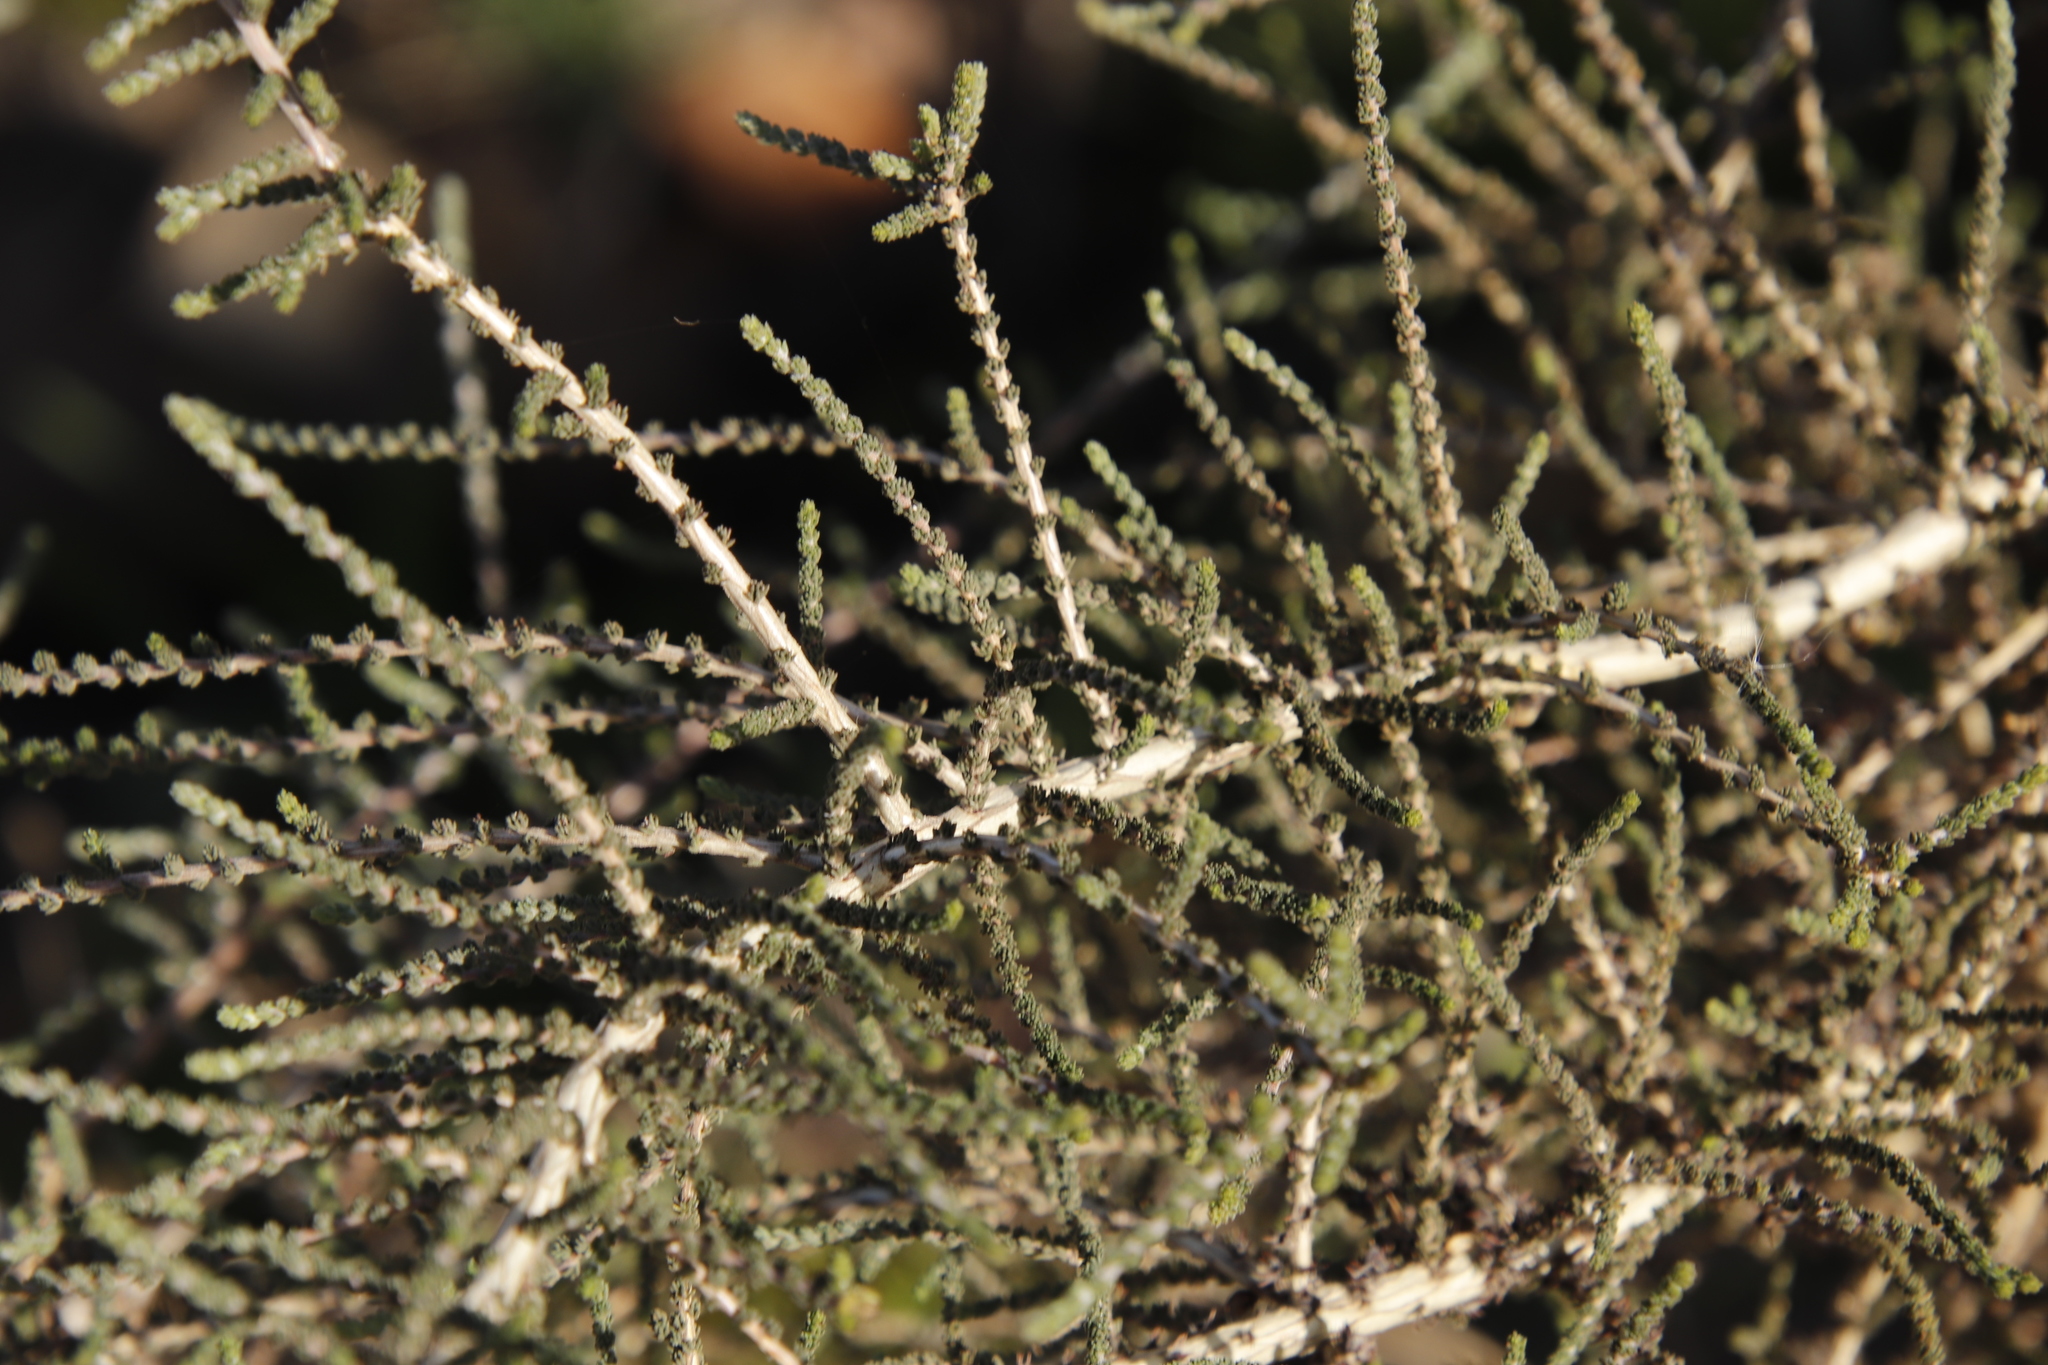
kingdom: Plantae
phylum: Tracheophyta
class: Magnoliopsida
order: Fabales
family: Fabaceae
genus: Aspalathus
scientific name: Aspalathus hispida
